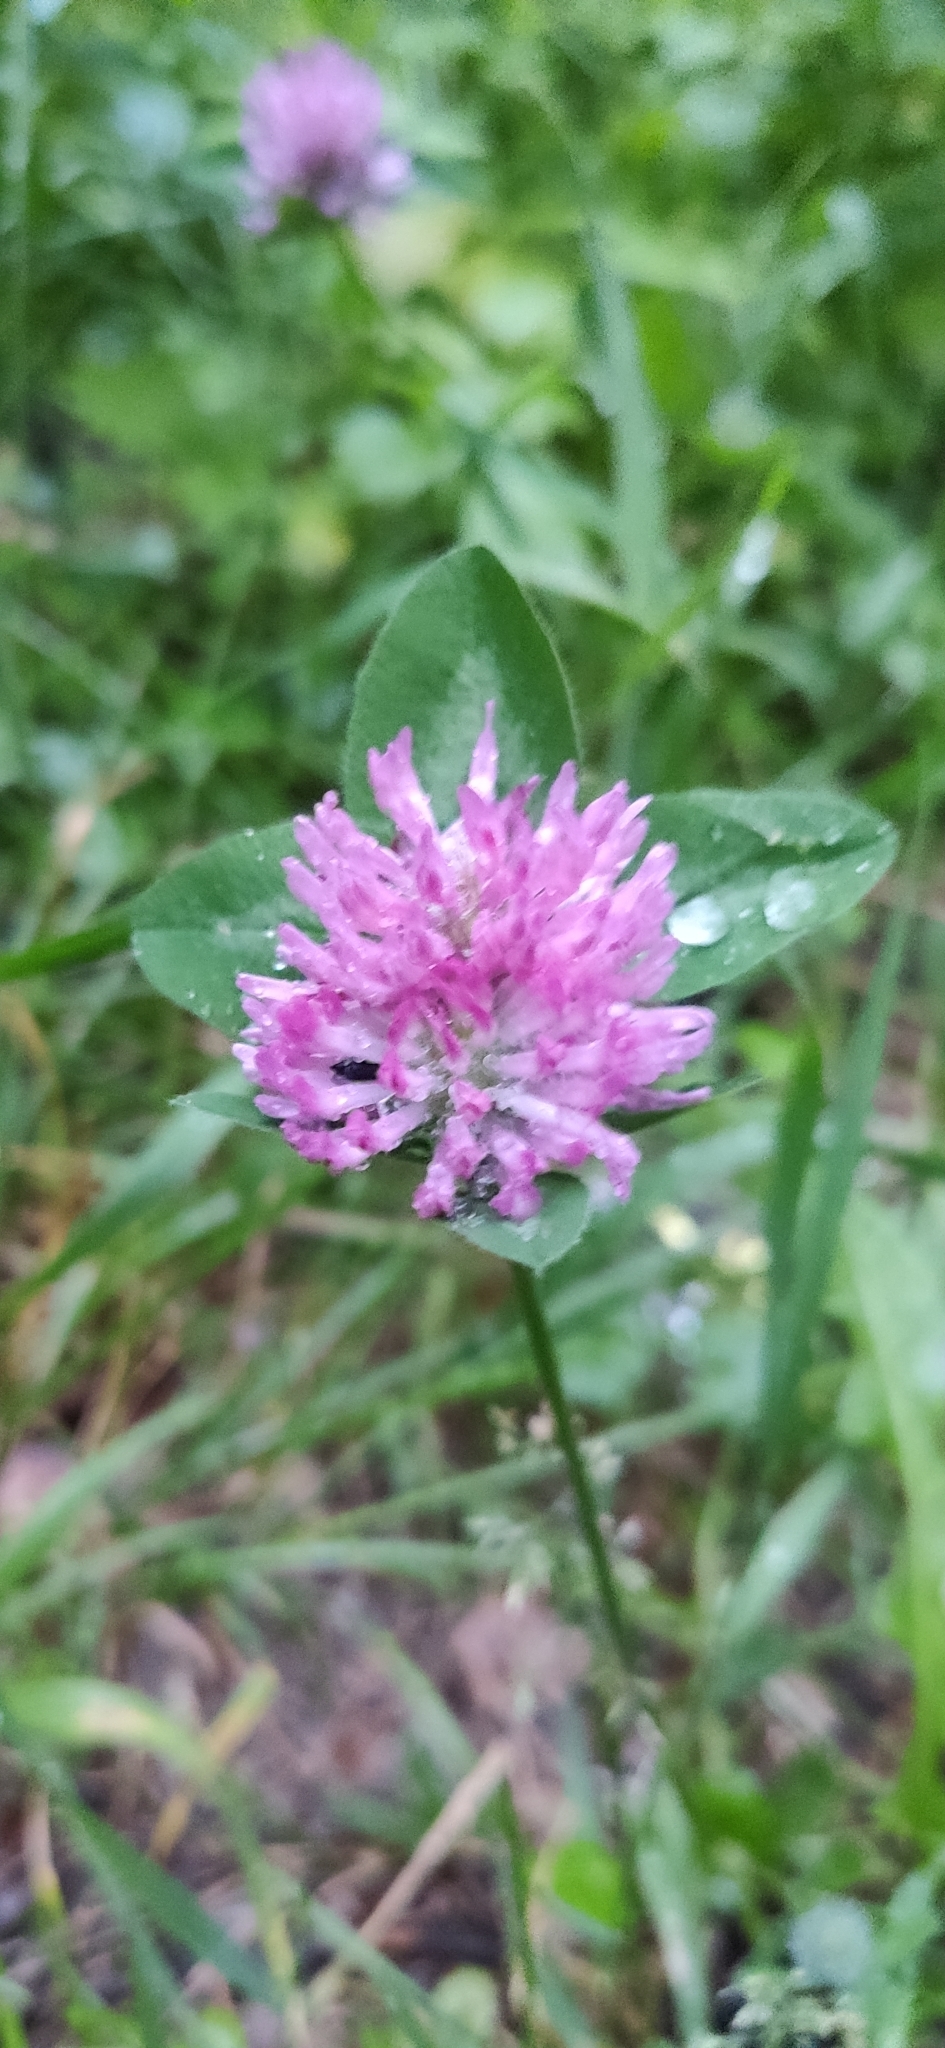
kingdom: Plantae
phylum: Tracheophyta
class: Magnoliopsida
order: Fabales
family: Fabaceae
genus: Trifolium
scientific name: Trifolium pratense
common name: Red clover
